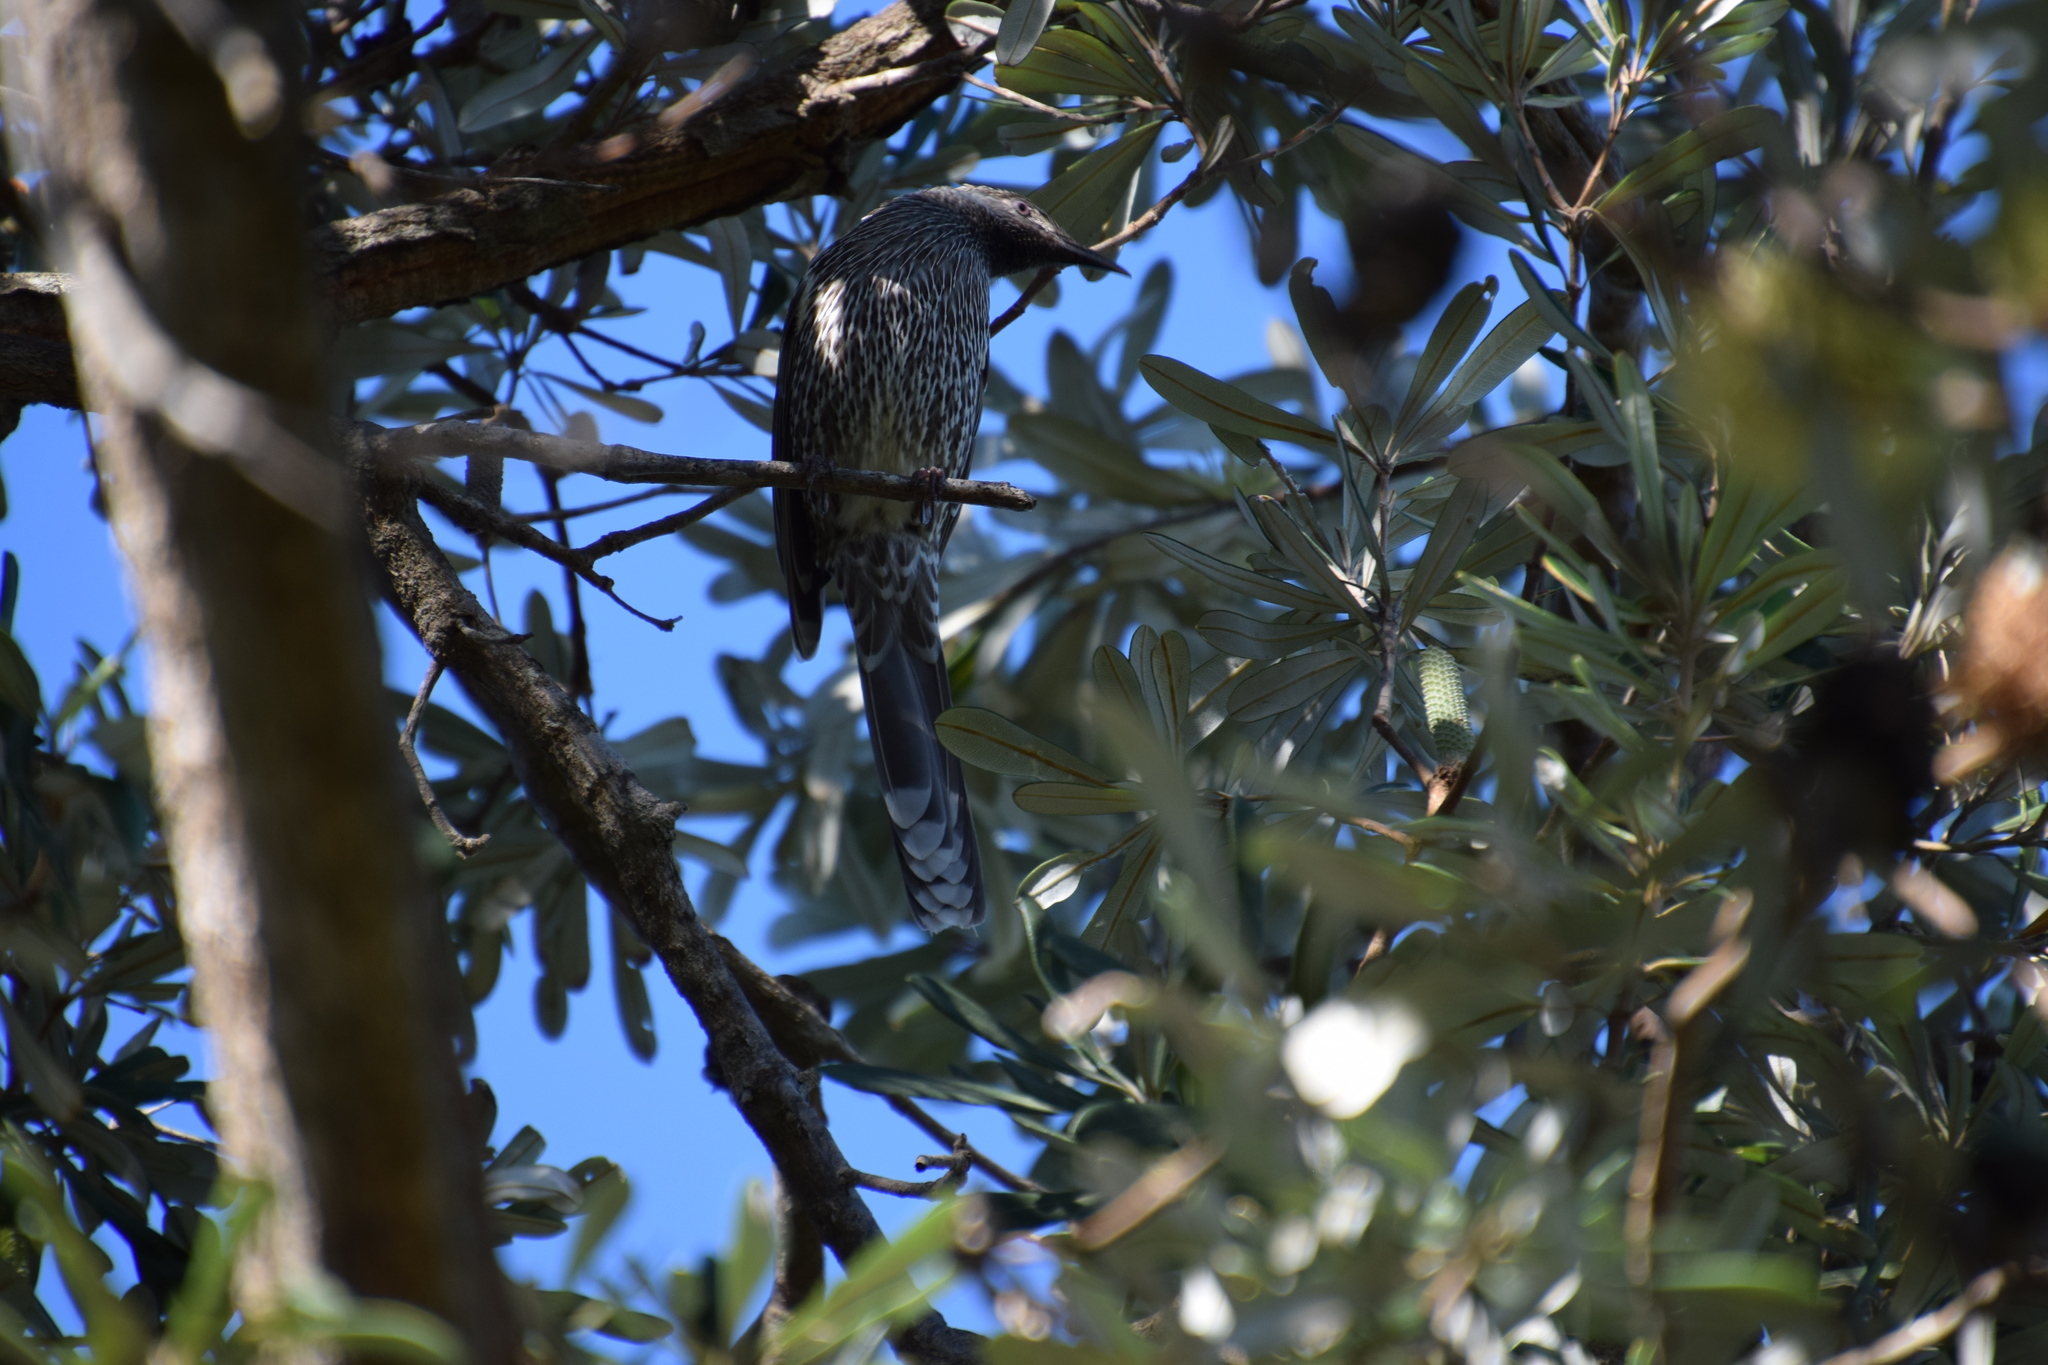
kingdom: Animalia
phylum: Chordata
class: Aves
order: Passeriformes
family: Meliphagidae
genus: Anthochaera
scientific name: Anthochaera chrysoptera
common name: Little wattlebird
